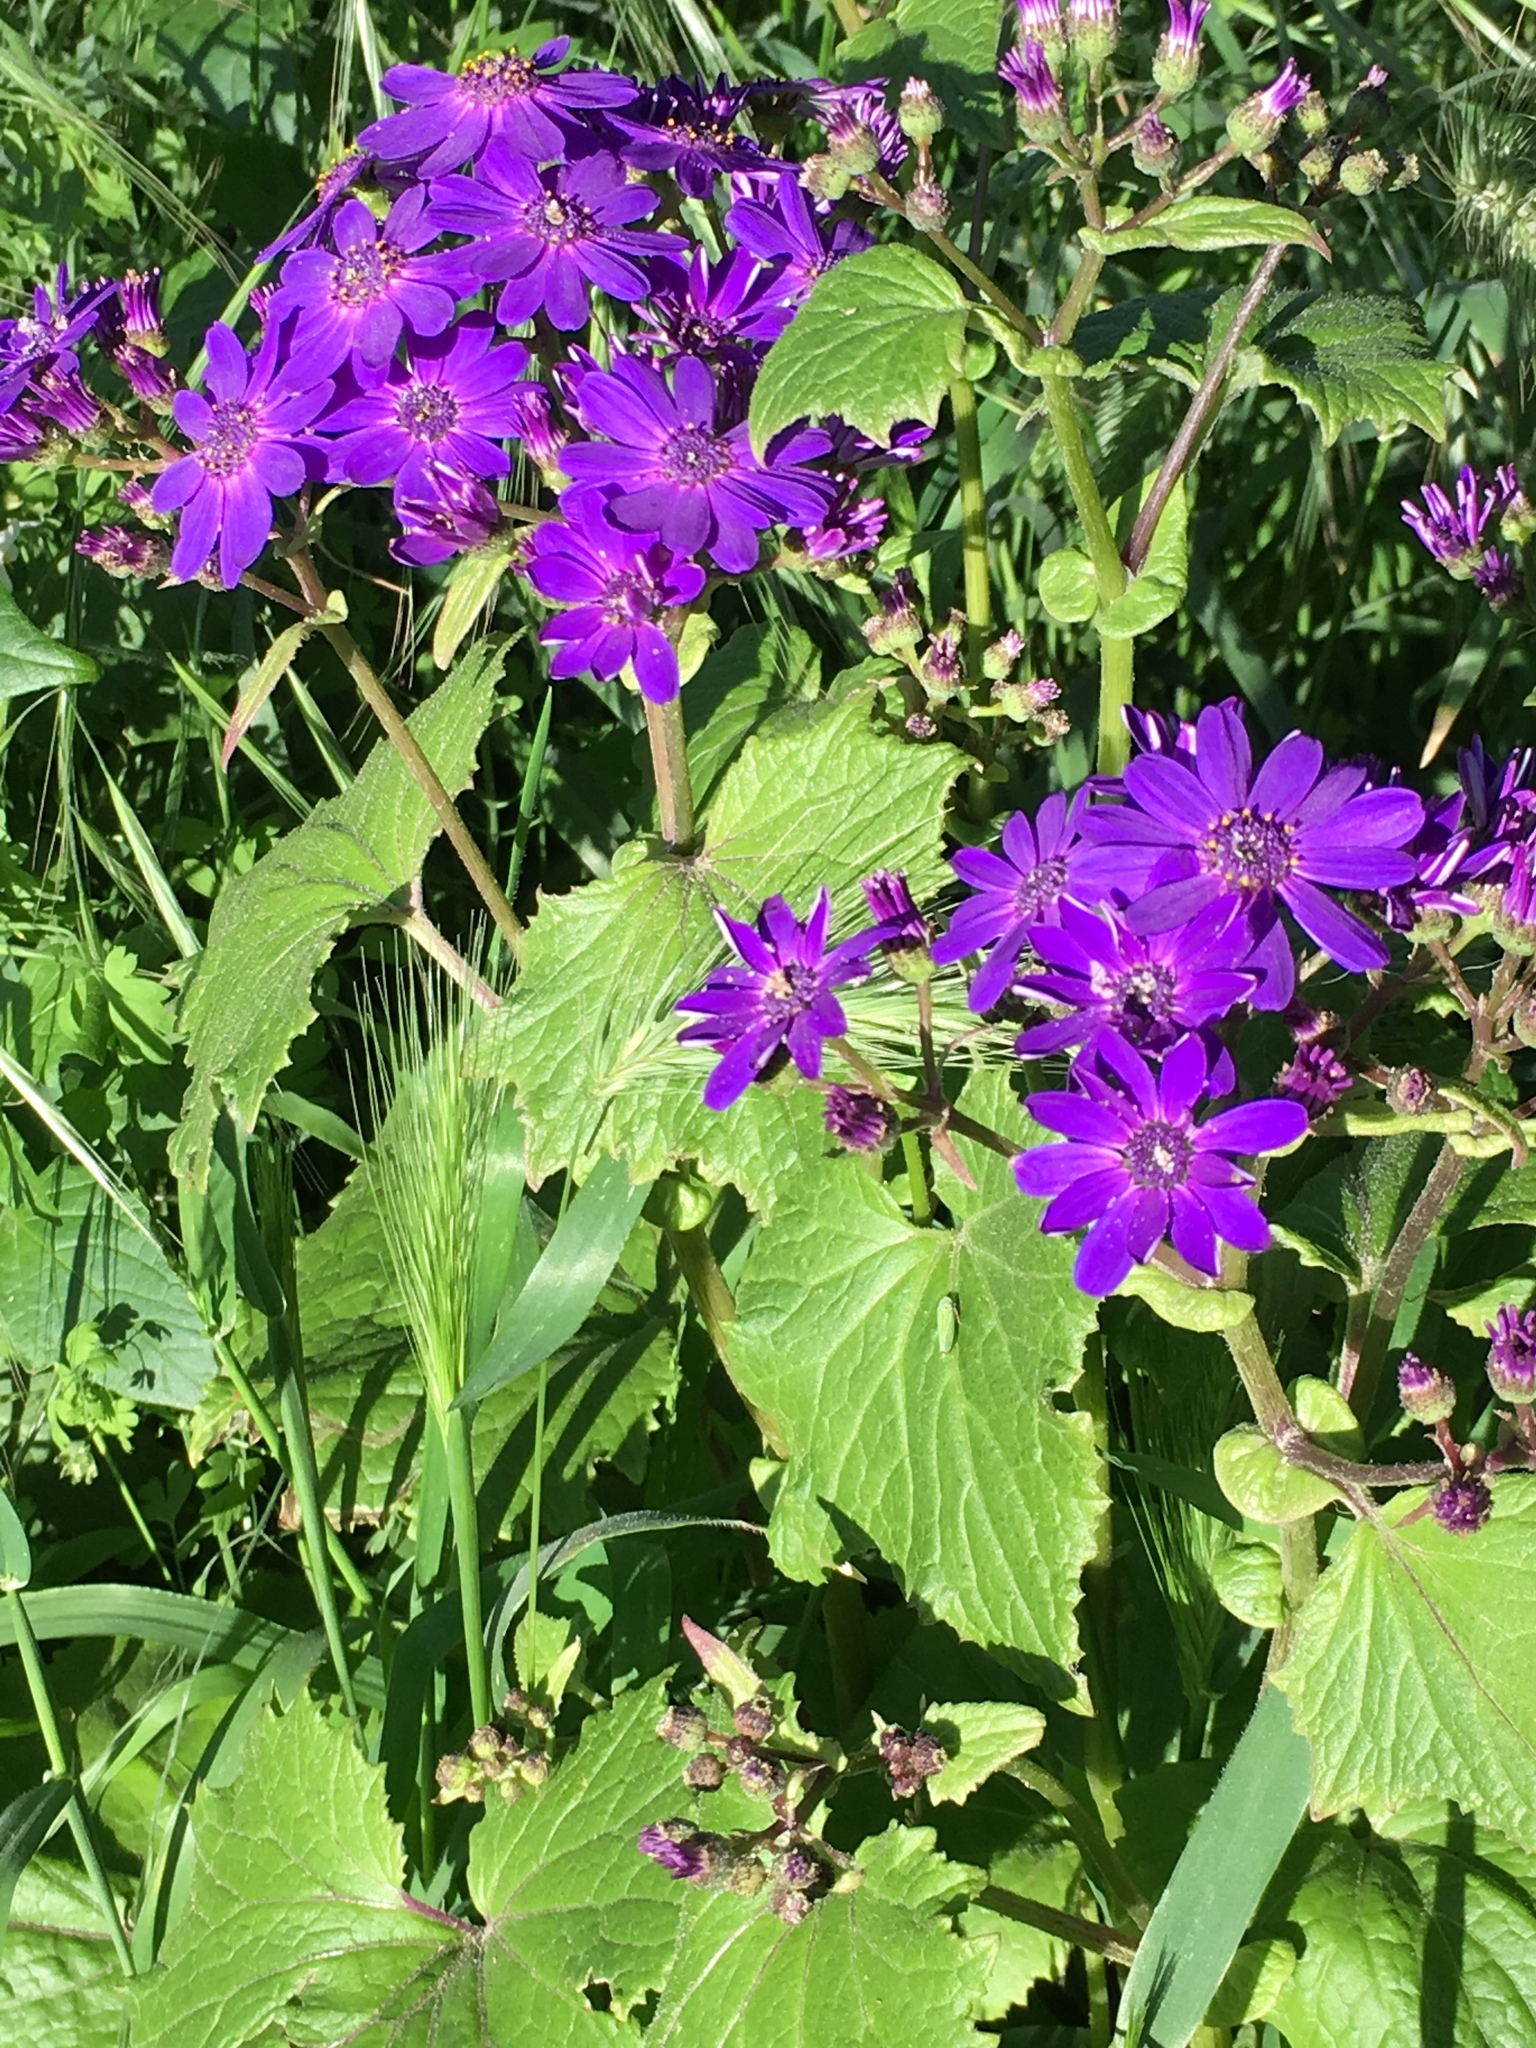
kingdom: Plantae
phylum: Tracheophyta
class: Magnoliopsida
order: Asterales
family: Asteraceae
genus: Pericallis
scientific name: Pericallis hybrida
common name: Cineraria
